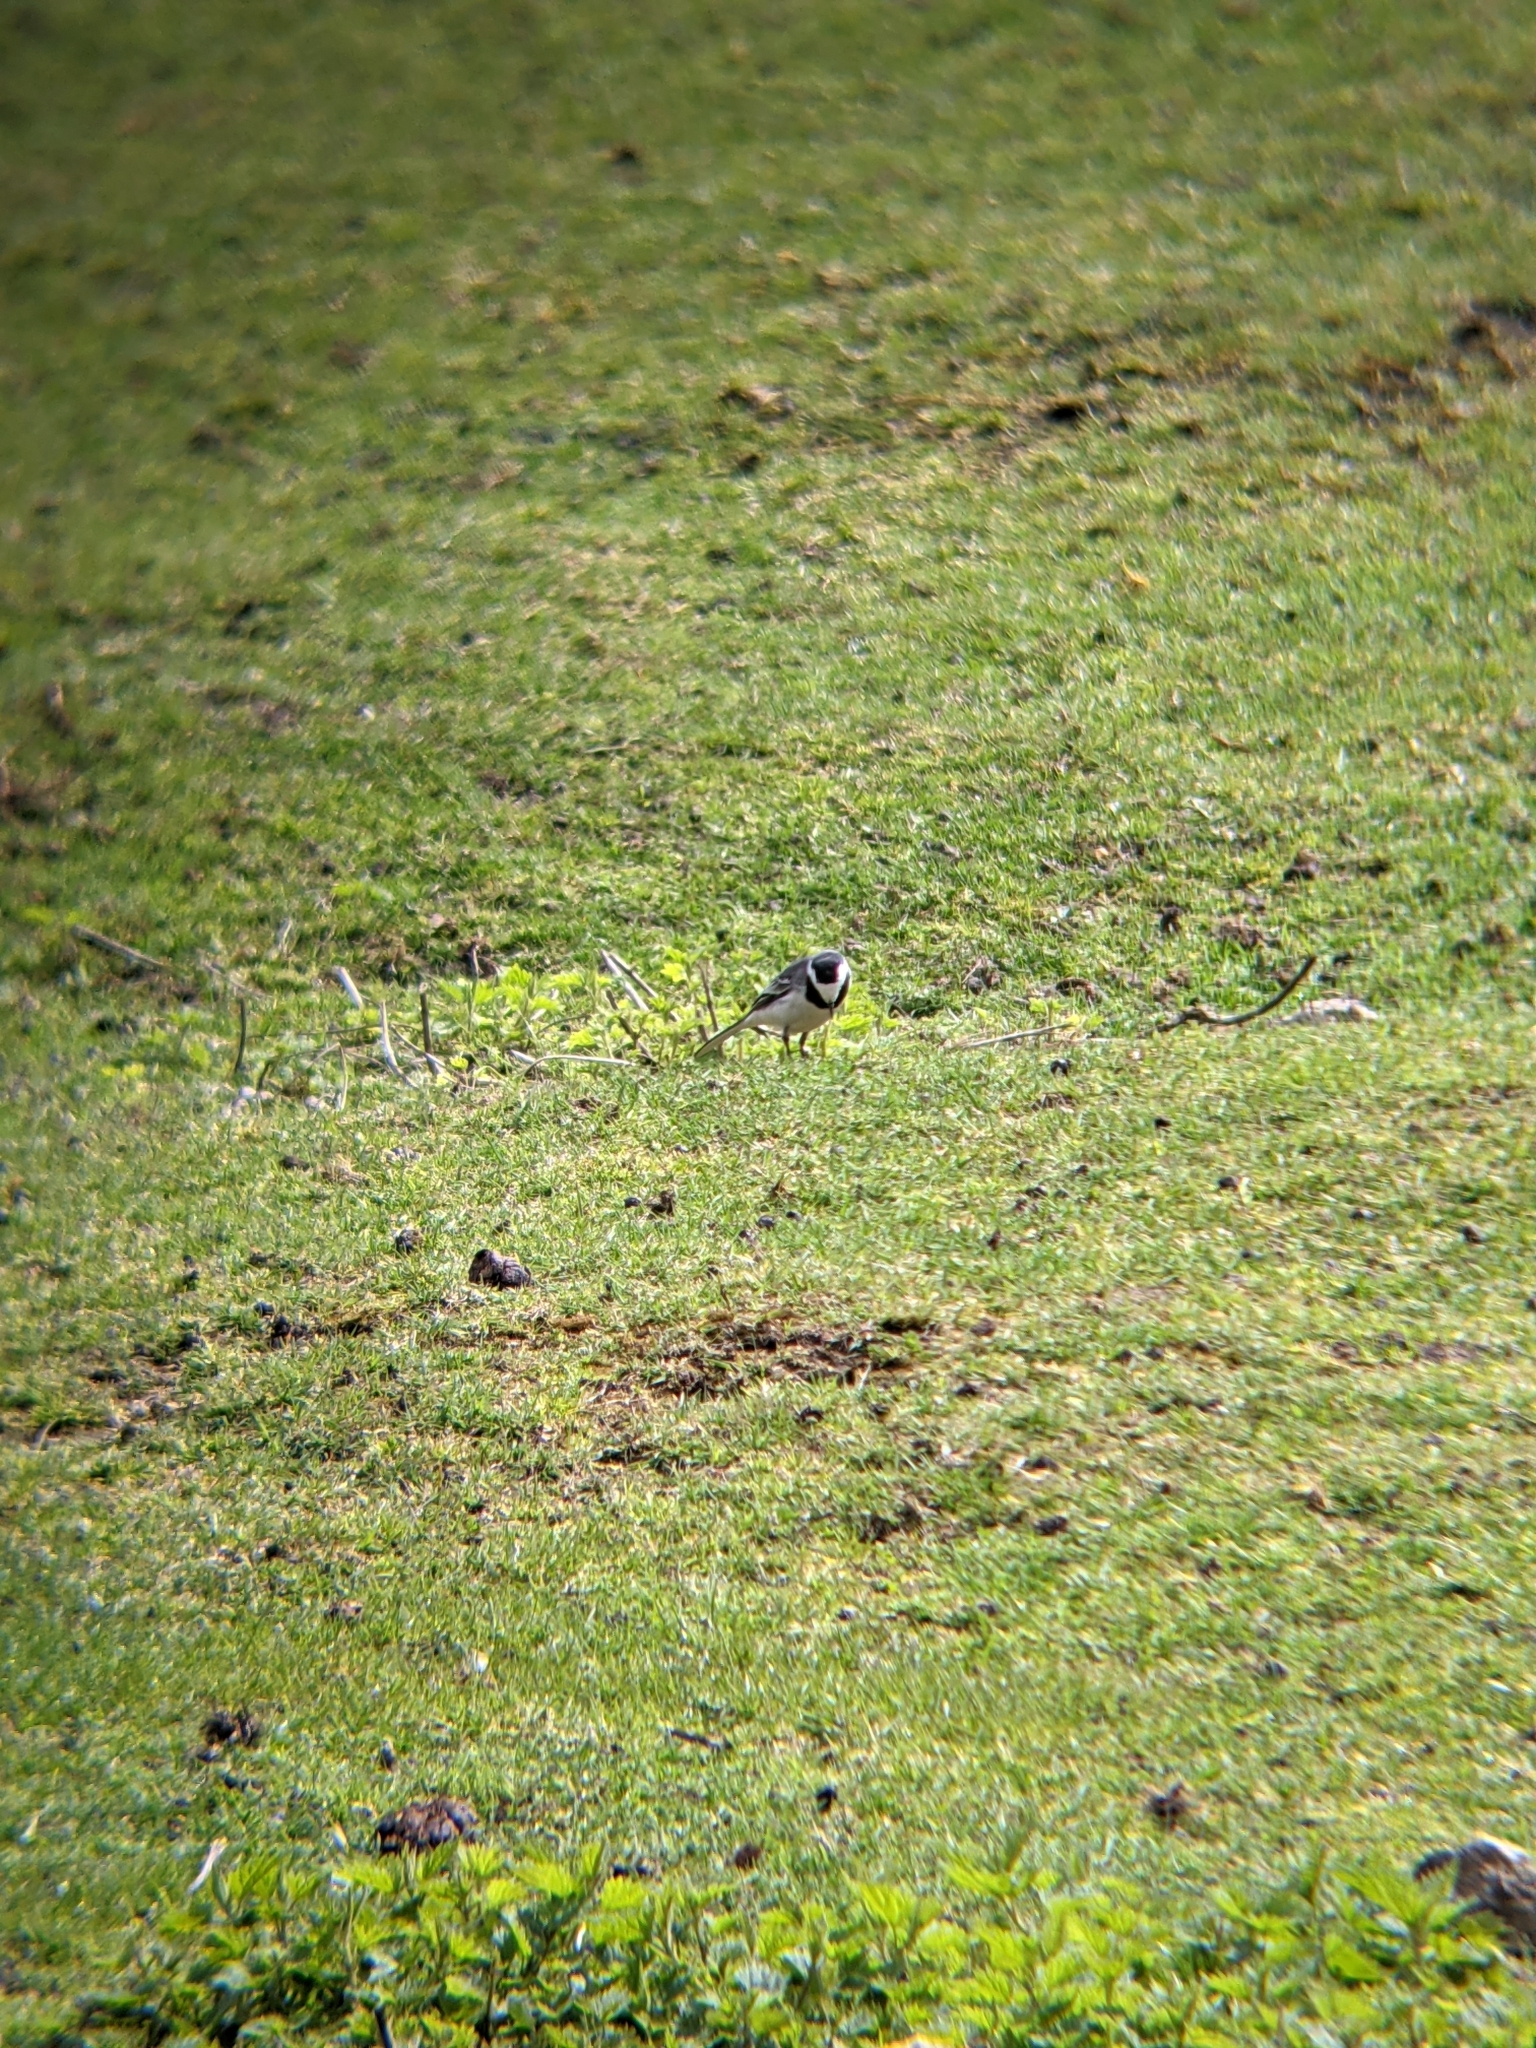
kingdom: Animalia
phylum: Chordata
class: Aves
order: Passeriformes
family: Motacillidae
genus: Motacilla
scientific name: Motacilla alba
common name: White wagtail
